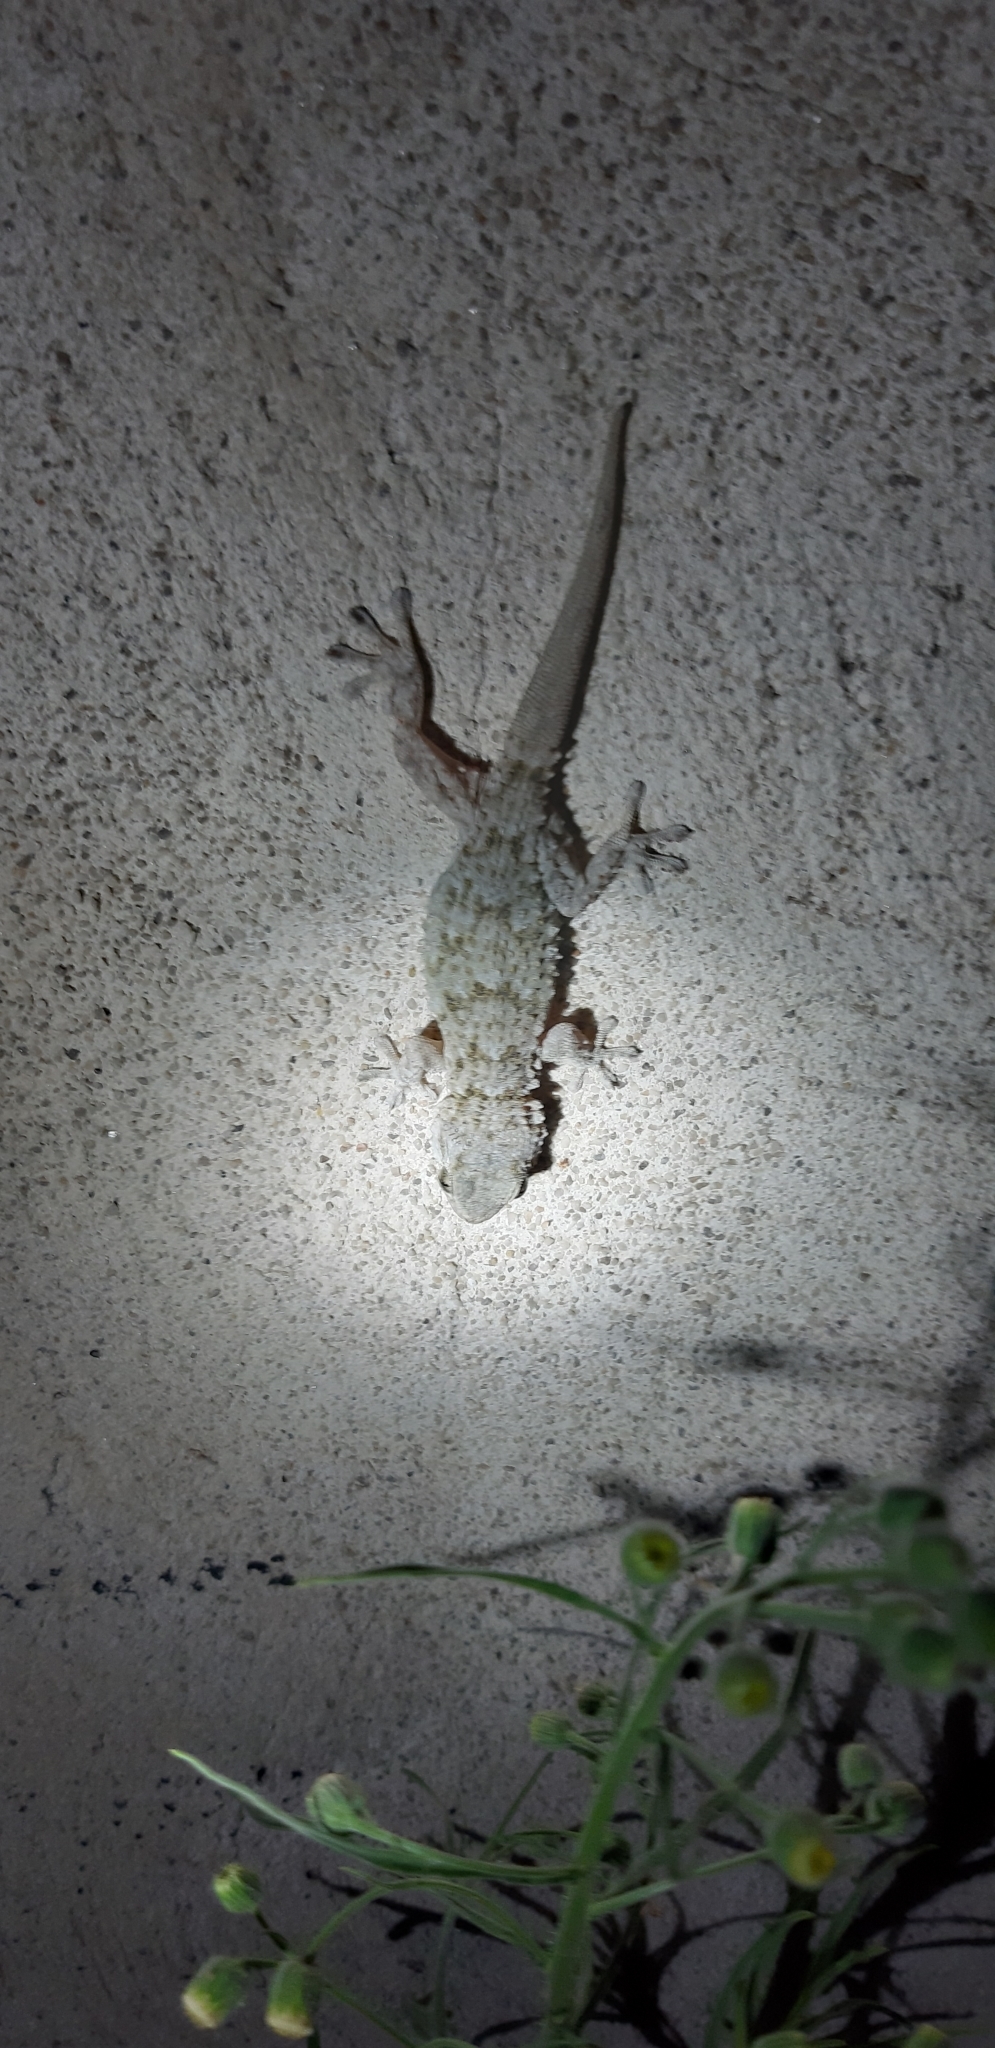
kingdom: Animalia
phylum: Chordata
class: Squamata
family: Phyllodactylidae
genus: Tarentola
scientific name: Tarentola mauritanica
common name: Moorish gecko
